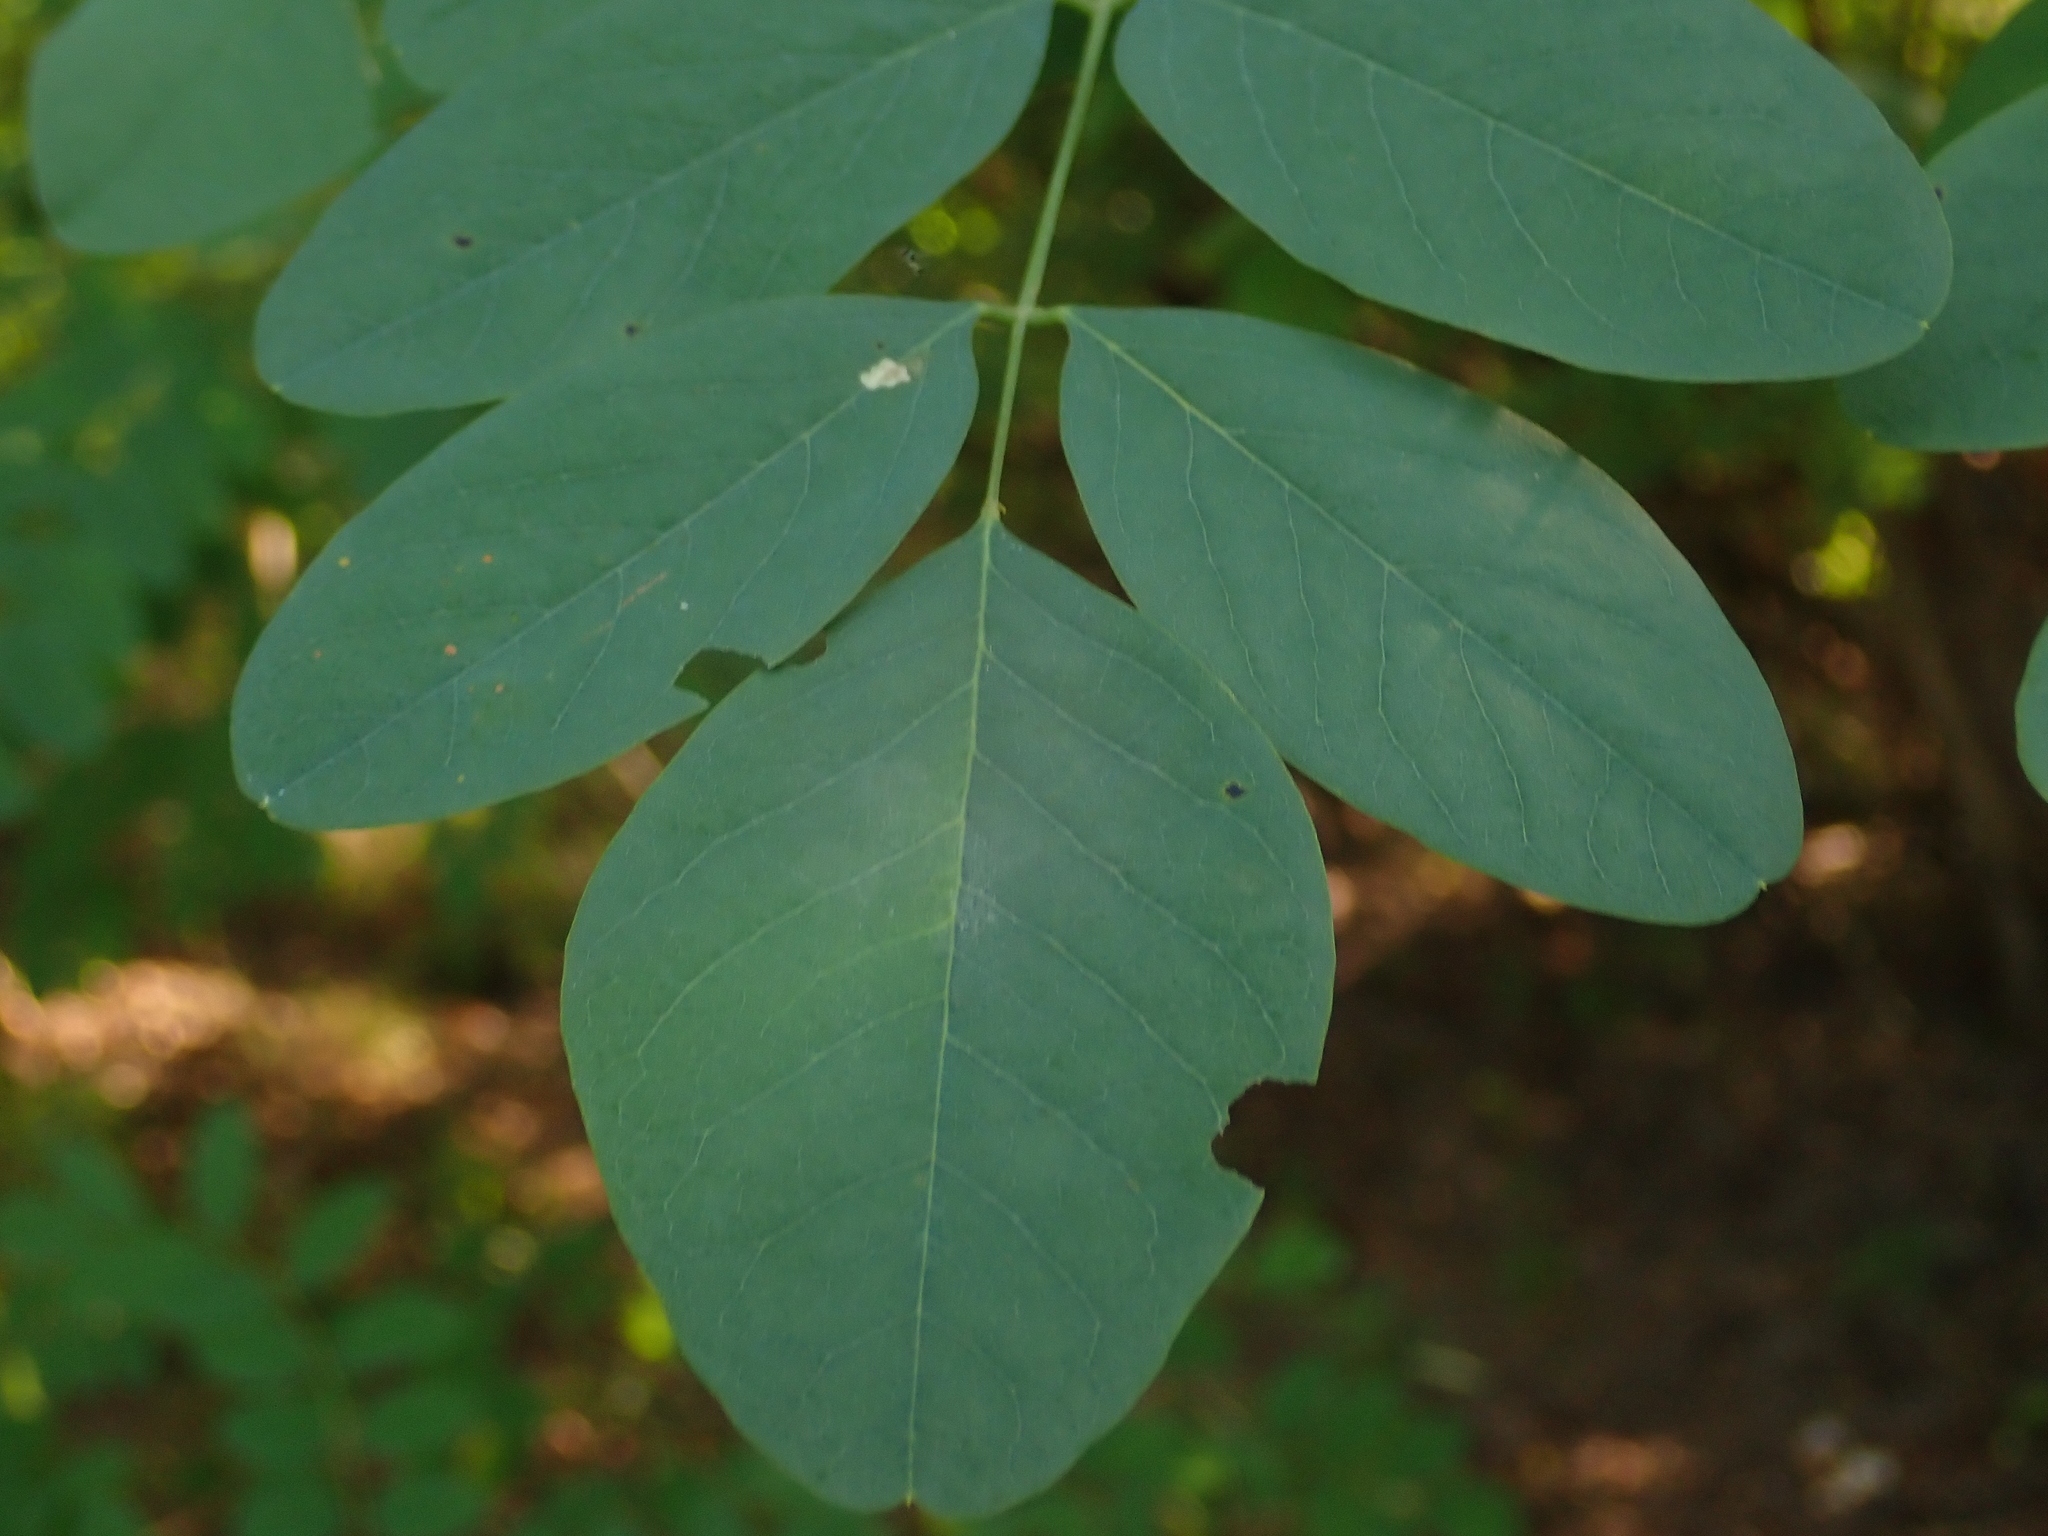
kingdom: Plantae
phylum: Tracheophyta
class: Magnoliopsida
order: Fabales
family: Fabaceae
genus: Robinia
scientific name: Robinia pseudoacacia
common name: Black locust
